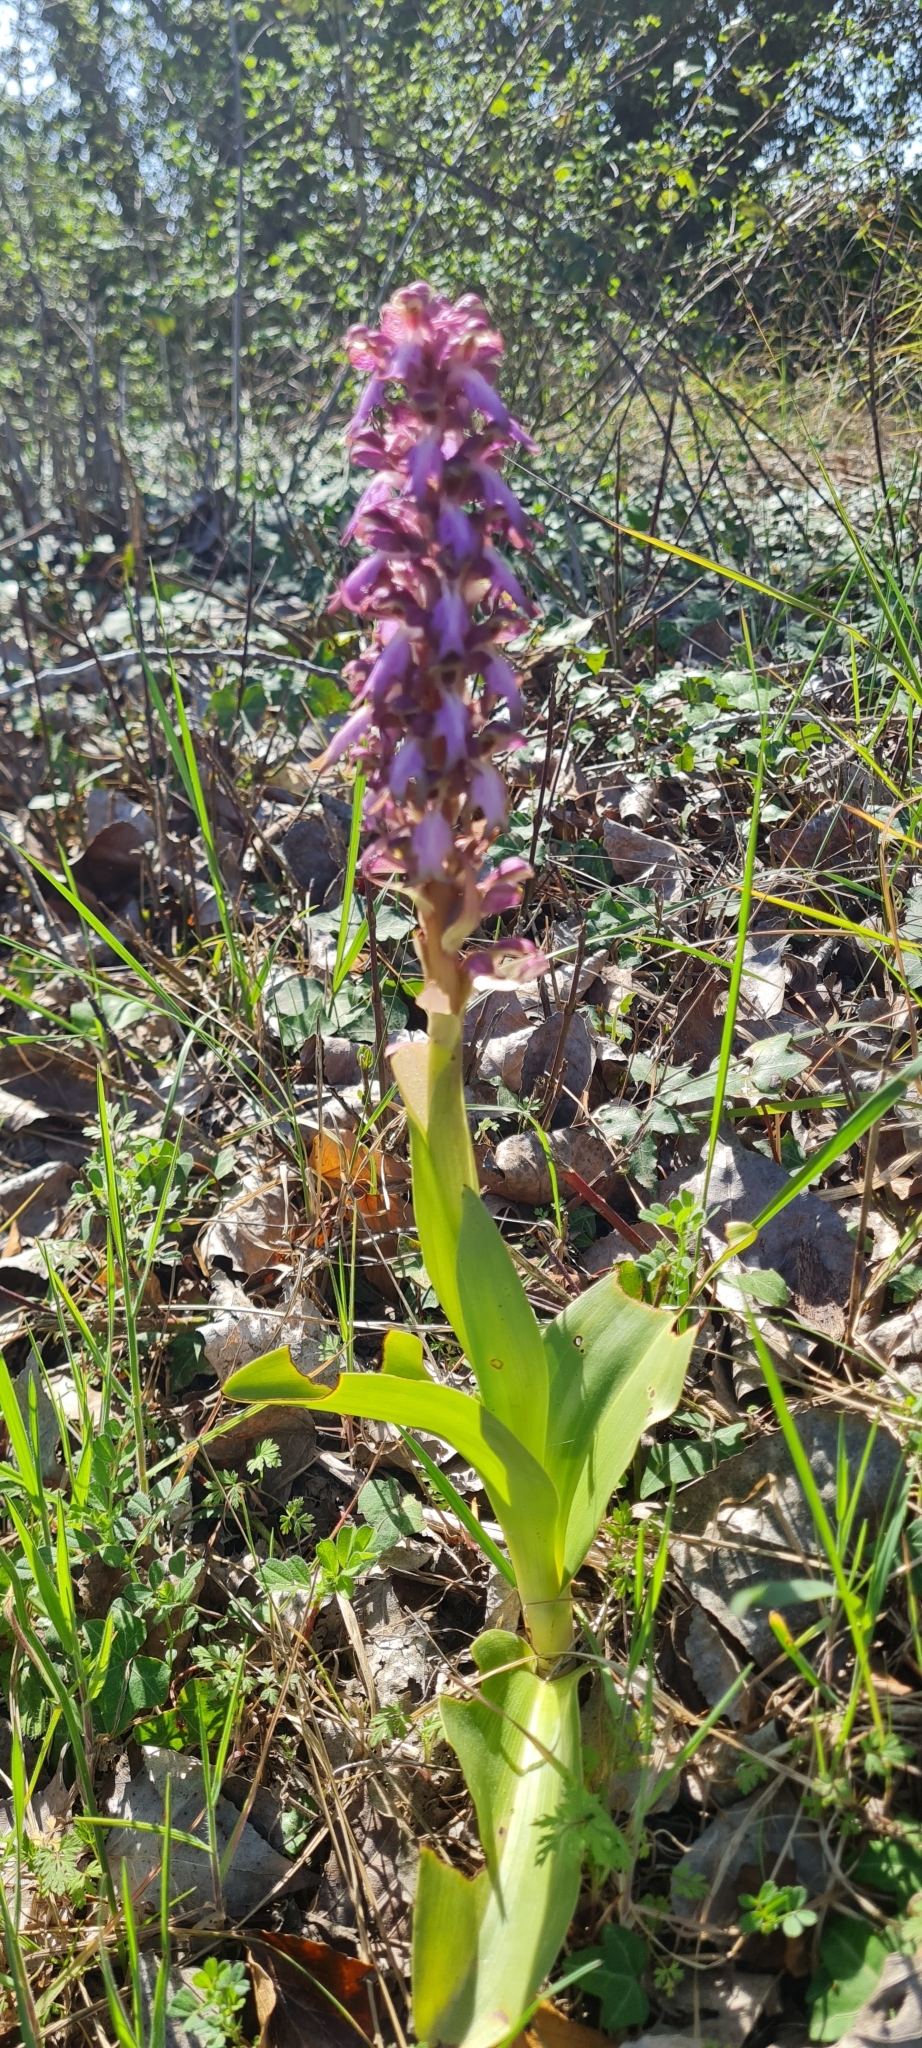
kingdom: Plantae
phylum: Tracheophyta
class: Liliopsida
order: Asparagales
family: Orchidaceae
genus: Himantoglossum
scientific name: Himantoglossum robertianum
